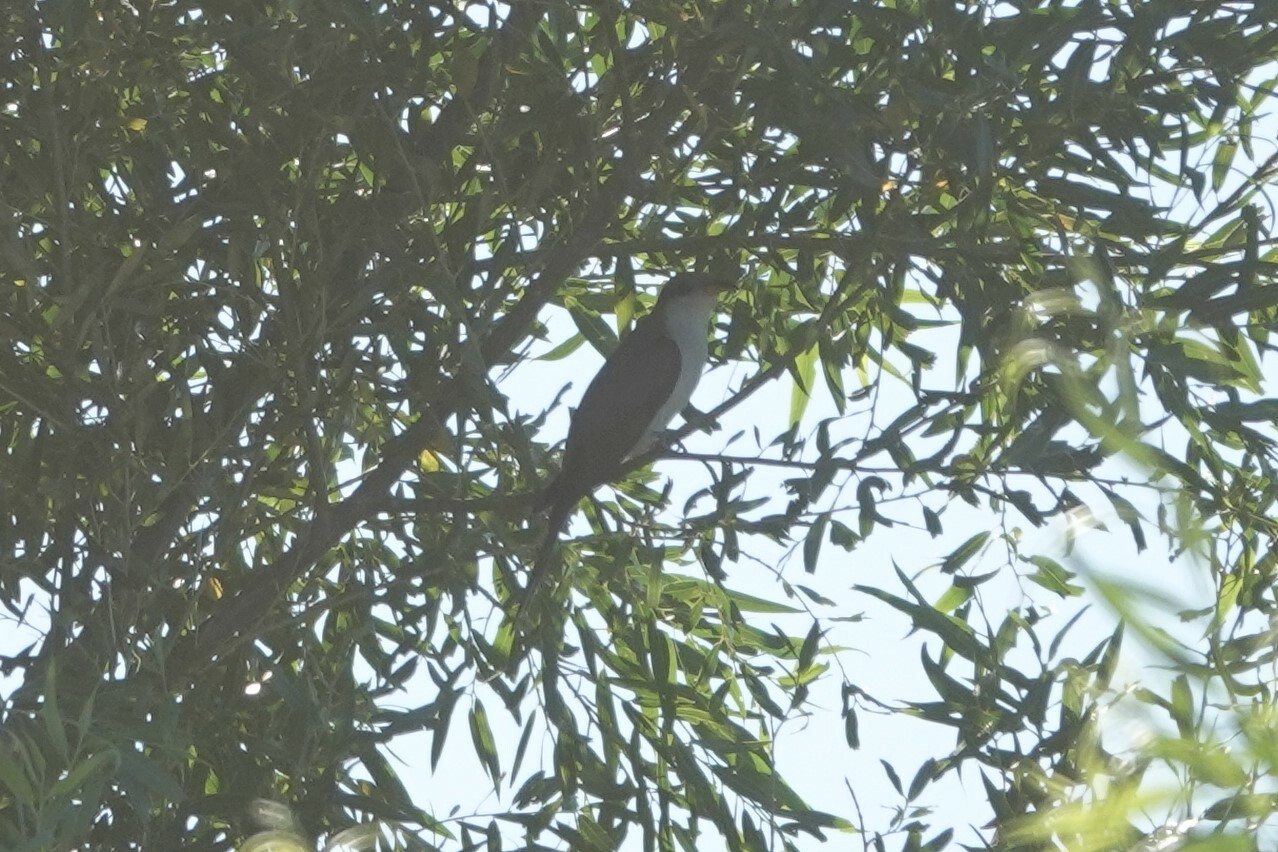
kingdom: Animalia
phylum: Chordata
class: Aves
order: Cuculiformes
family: Cuculidae
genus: Coccyzus
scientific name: Coccyzus americanus
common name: Yellow-billed cuckoo
